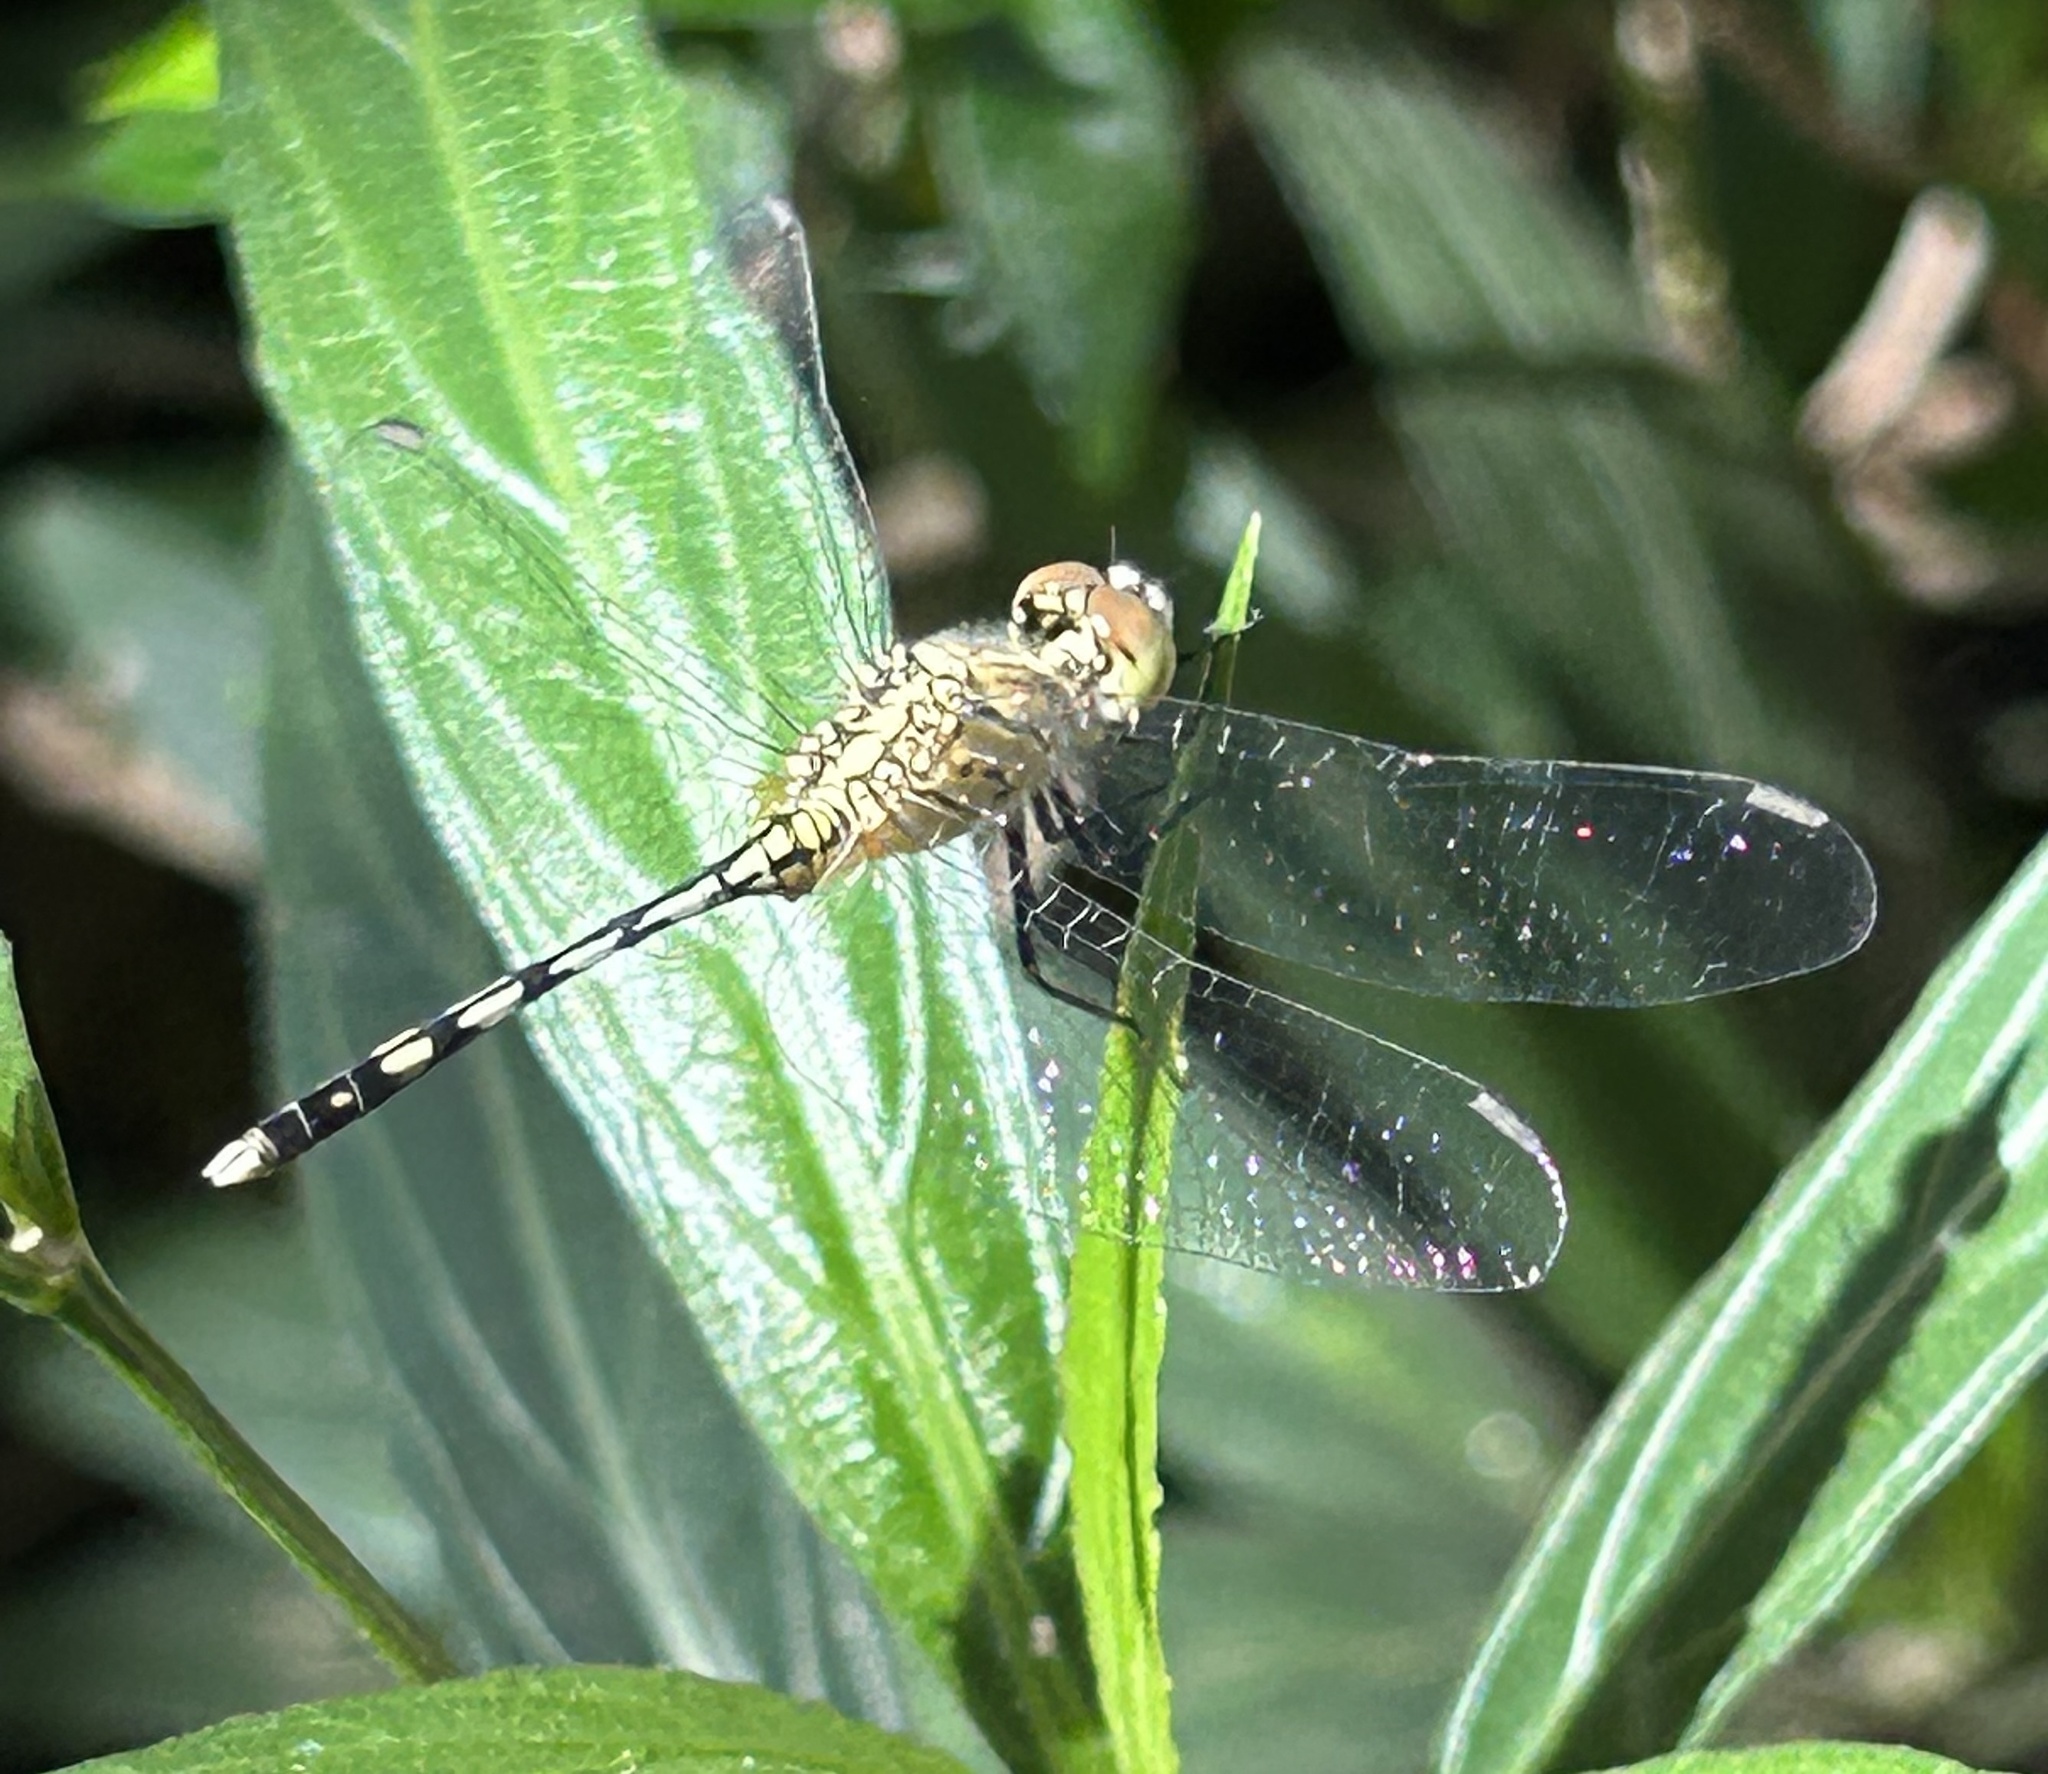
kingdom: Animalia
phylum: Arthropoda
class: Insecta
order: Odonata
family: Libellulidae
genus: Diplacodes
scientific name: Diplacodes trivialis
